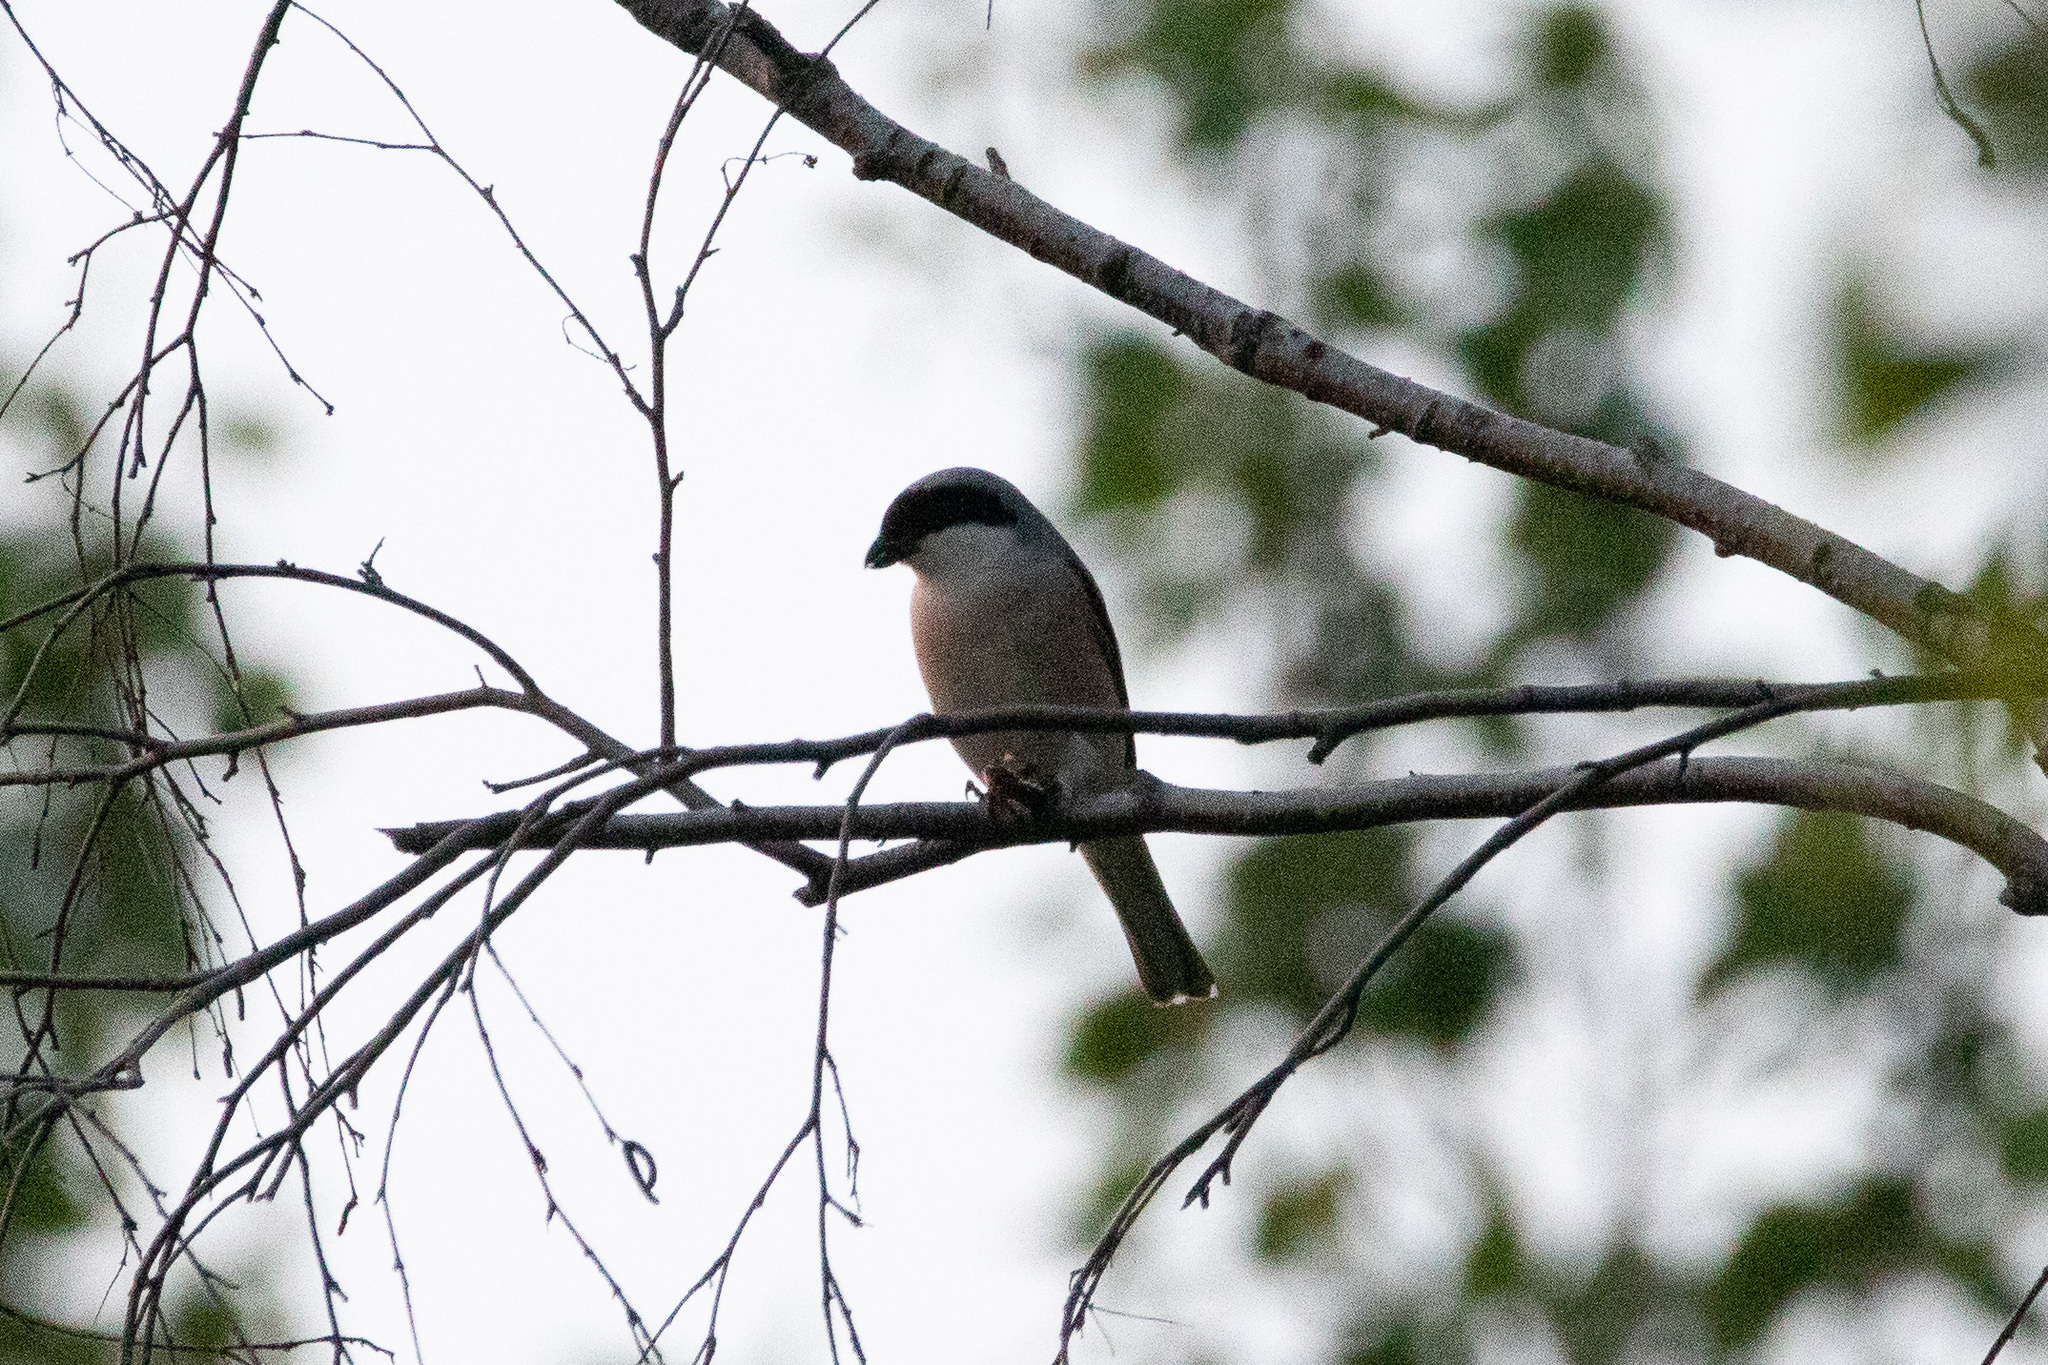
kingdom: Animalia
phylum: Chordata
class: Aves
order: Passeriformes
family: Laniidae
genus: Lanius
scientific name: Lanius minor
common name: Lesser grey shrike
